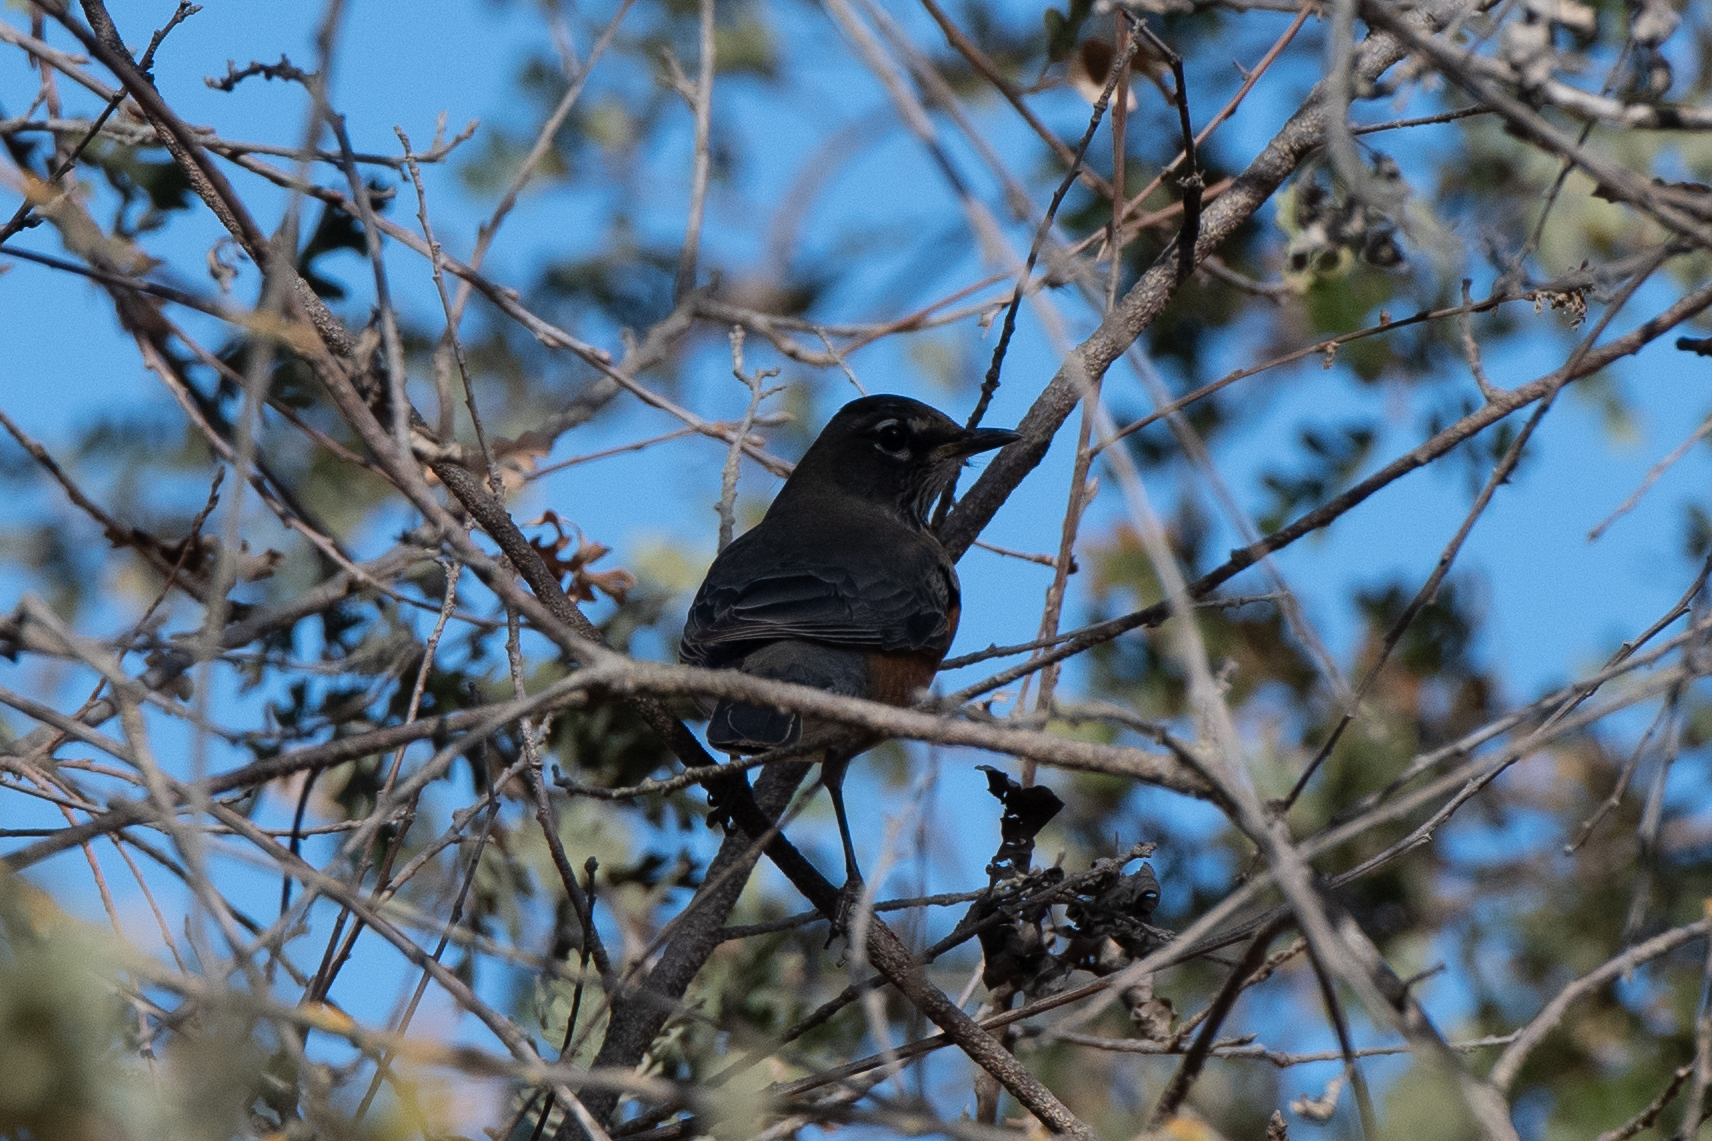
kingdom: Animalia
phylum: Chordata
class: Aves
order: Passeriformes
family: Turdidae
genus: Turdus
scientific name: Turdus migratorius
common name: American robin
